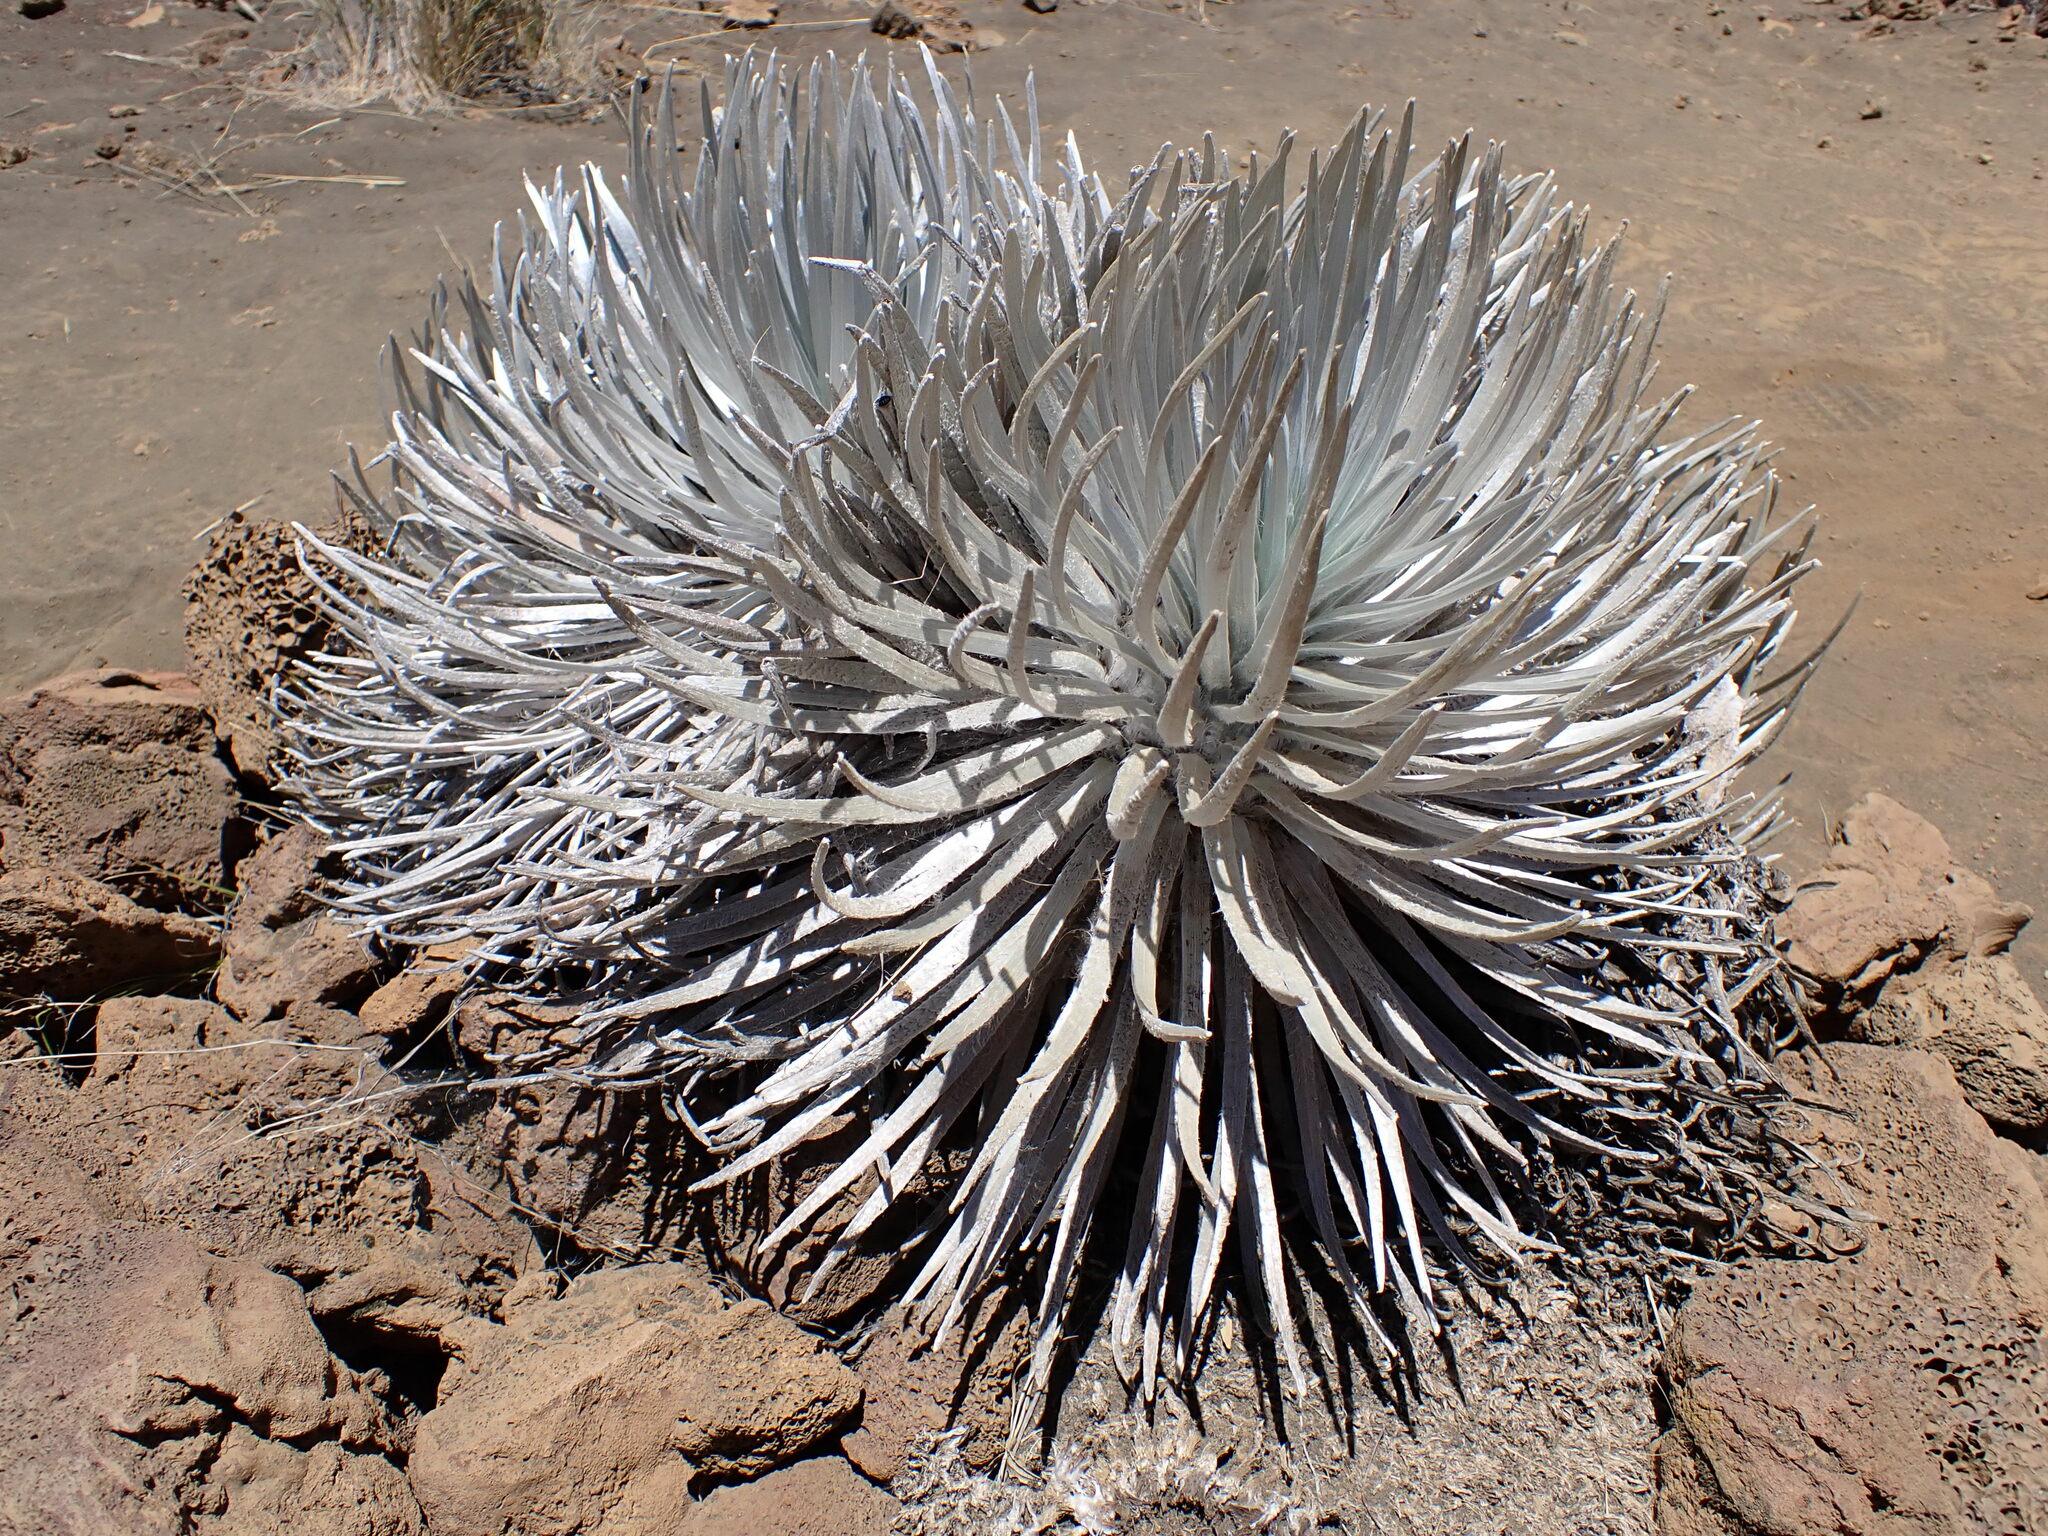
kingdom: Plantae
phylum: Tracheophyta
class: Magnoliopsida
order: Asterales
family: Asteraceae
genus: Argyroxiphium
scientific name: Argyroxiphium sandwicense
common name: Silversword
